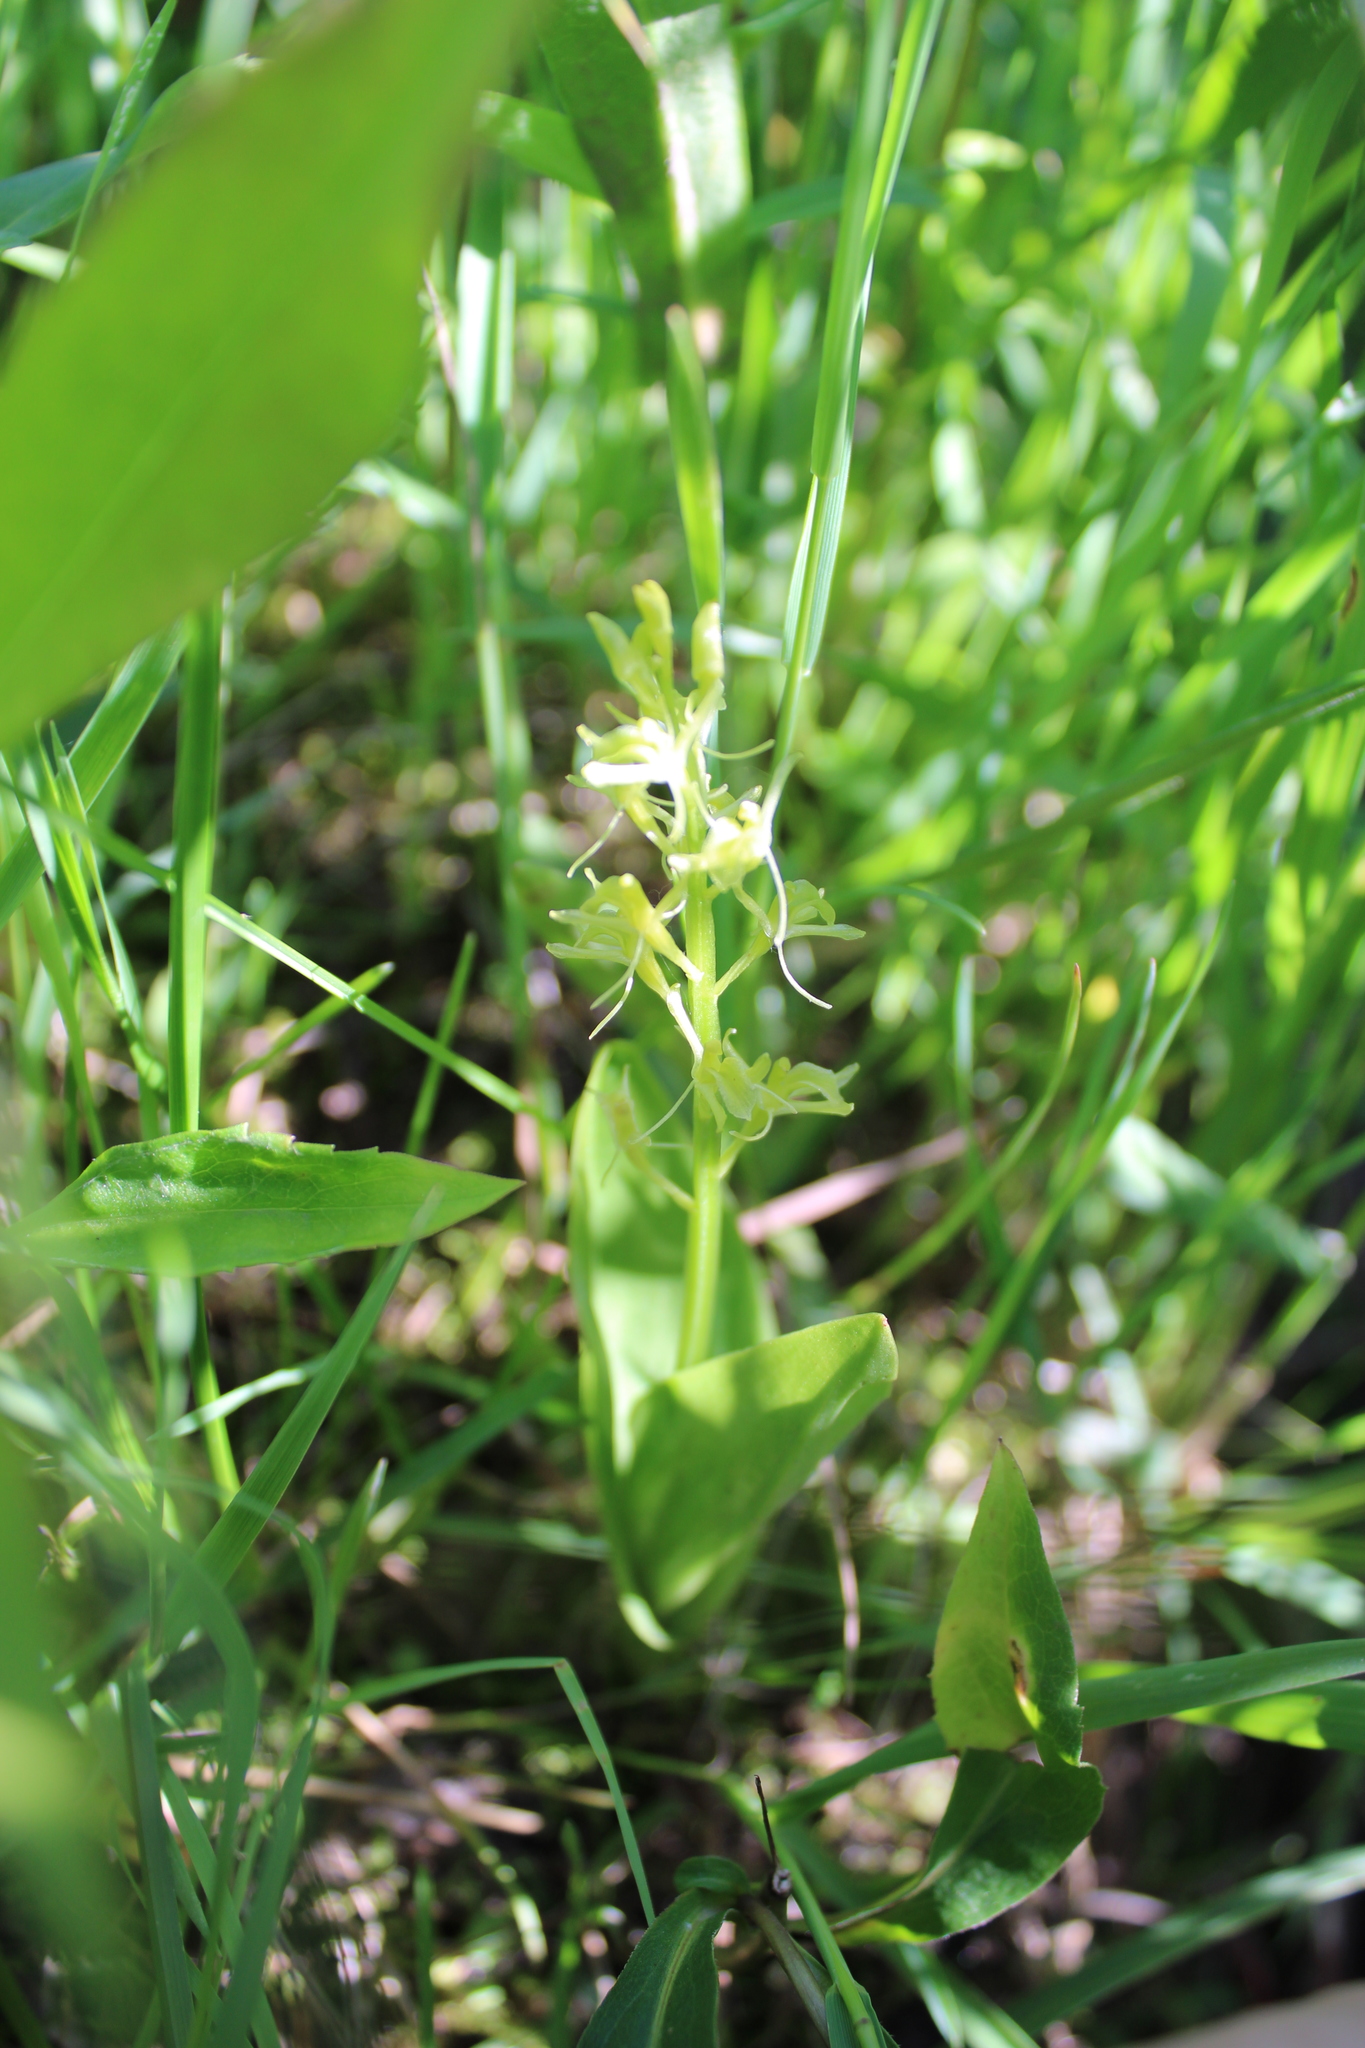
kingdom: Animalia
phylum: Arthropoda
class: Insecta
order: Coleoptera
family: Curculionidae
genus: Liparis
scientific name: Liparis loeselii
